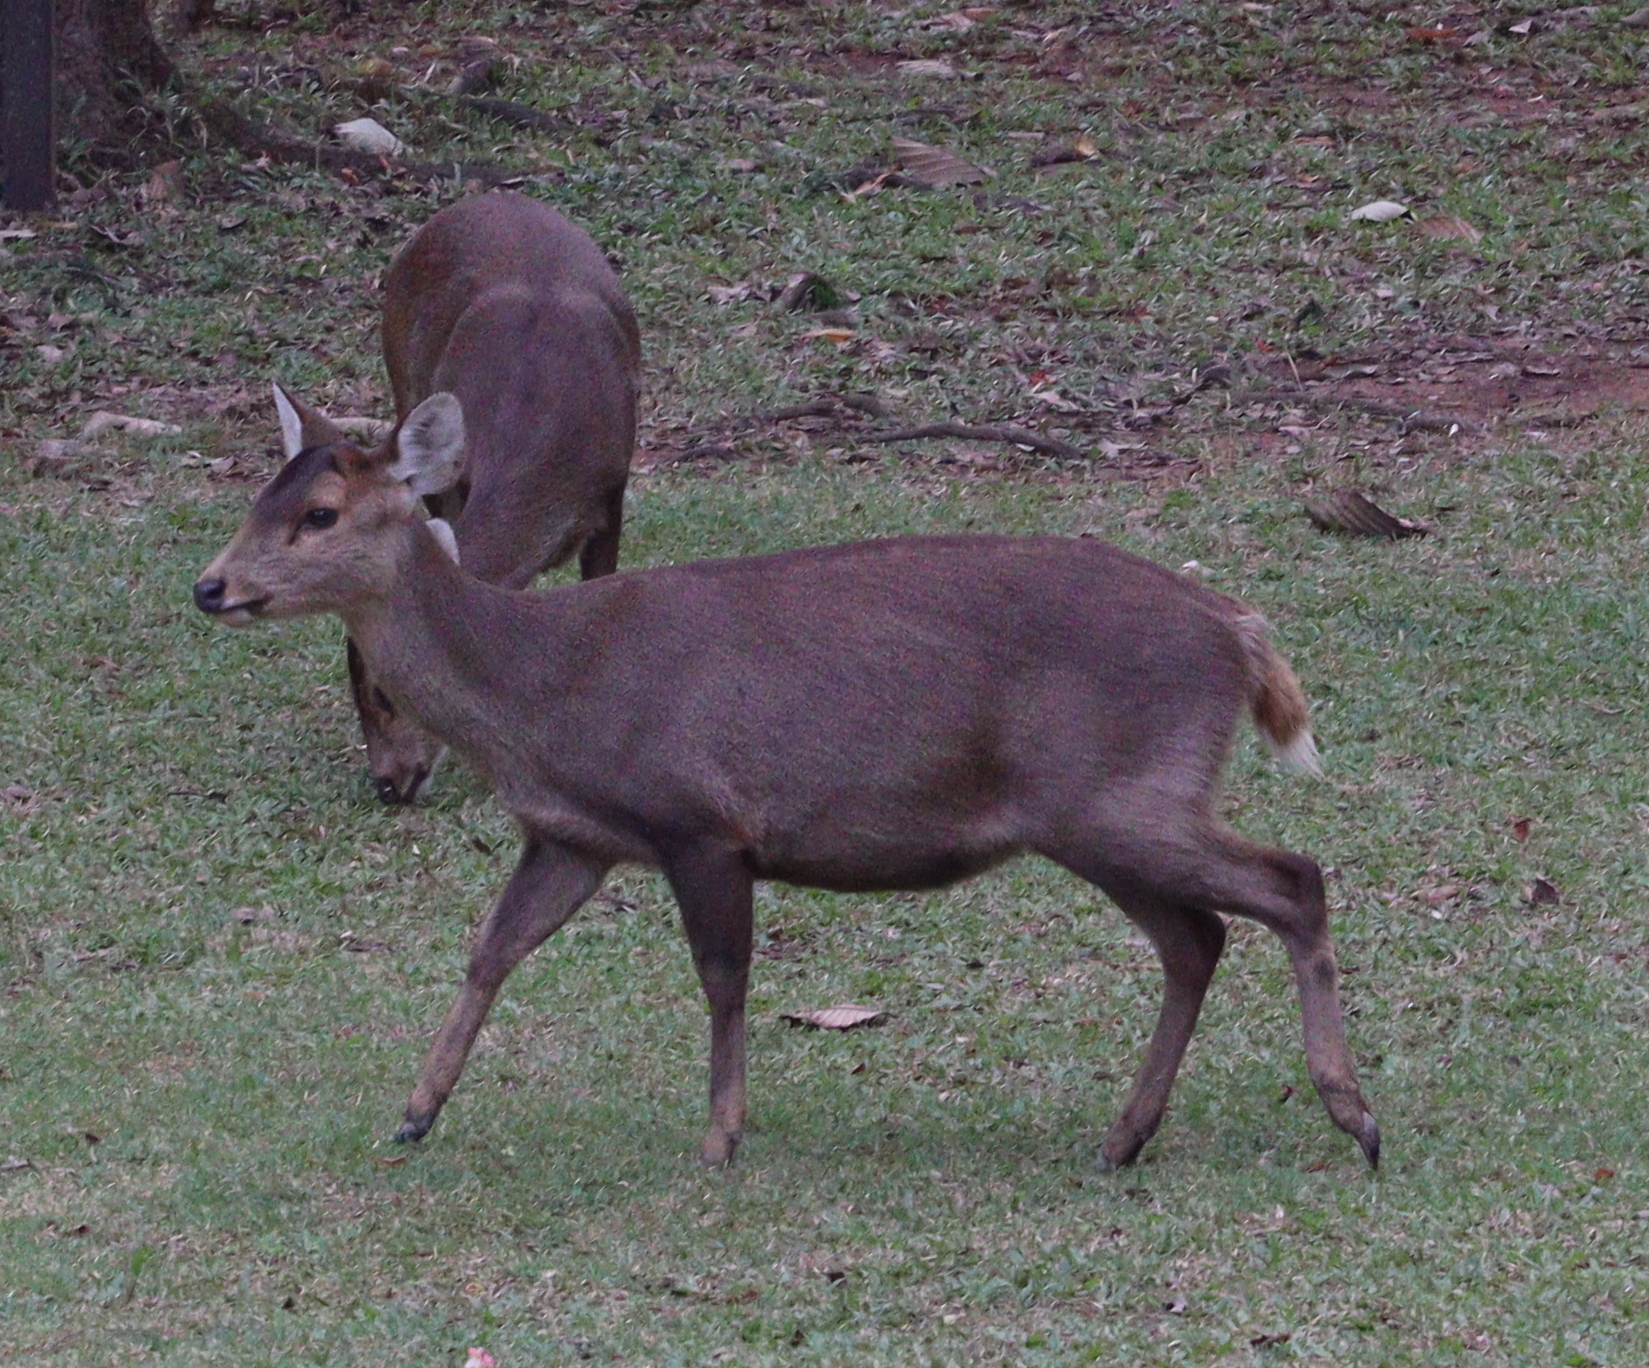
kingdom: Animalia
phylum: Chordata
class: Mammalia
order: Artiodactyla
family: Cervidae
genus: Axis
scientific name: Axis porcinus
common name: Hog deer
